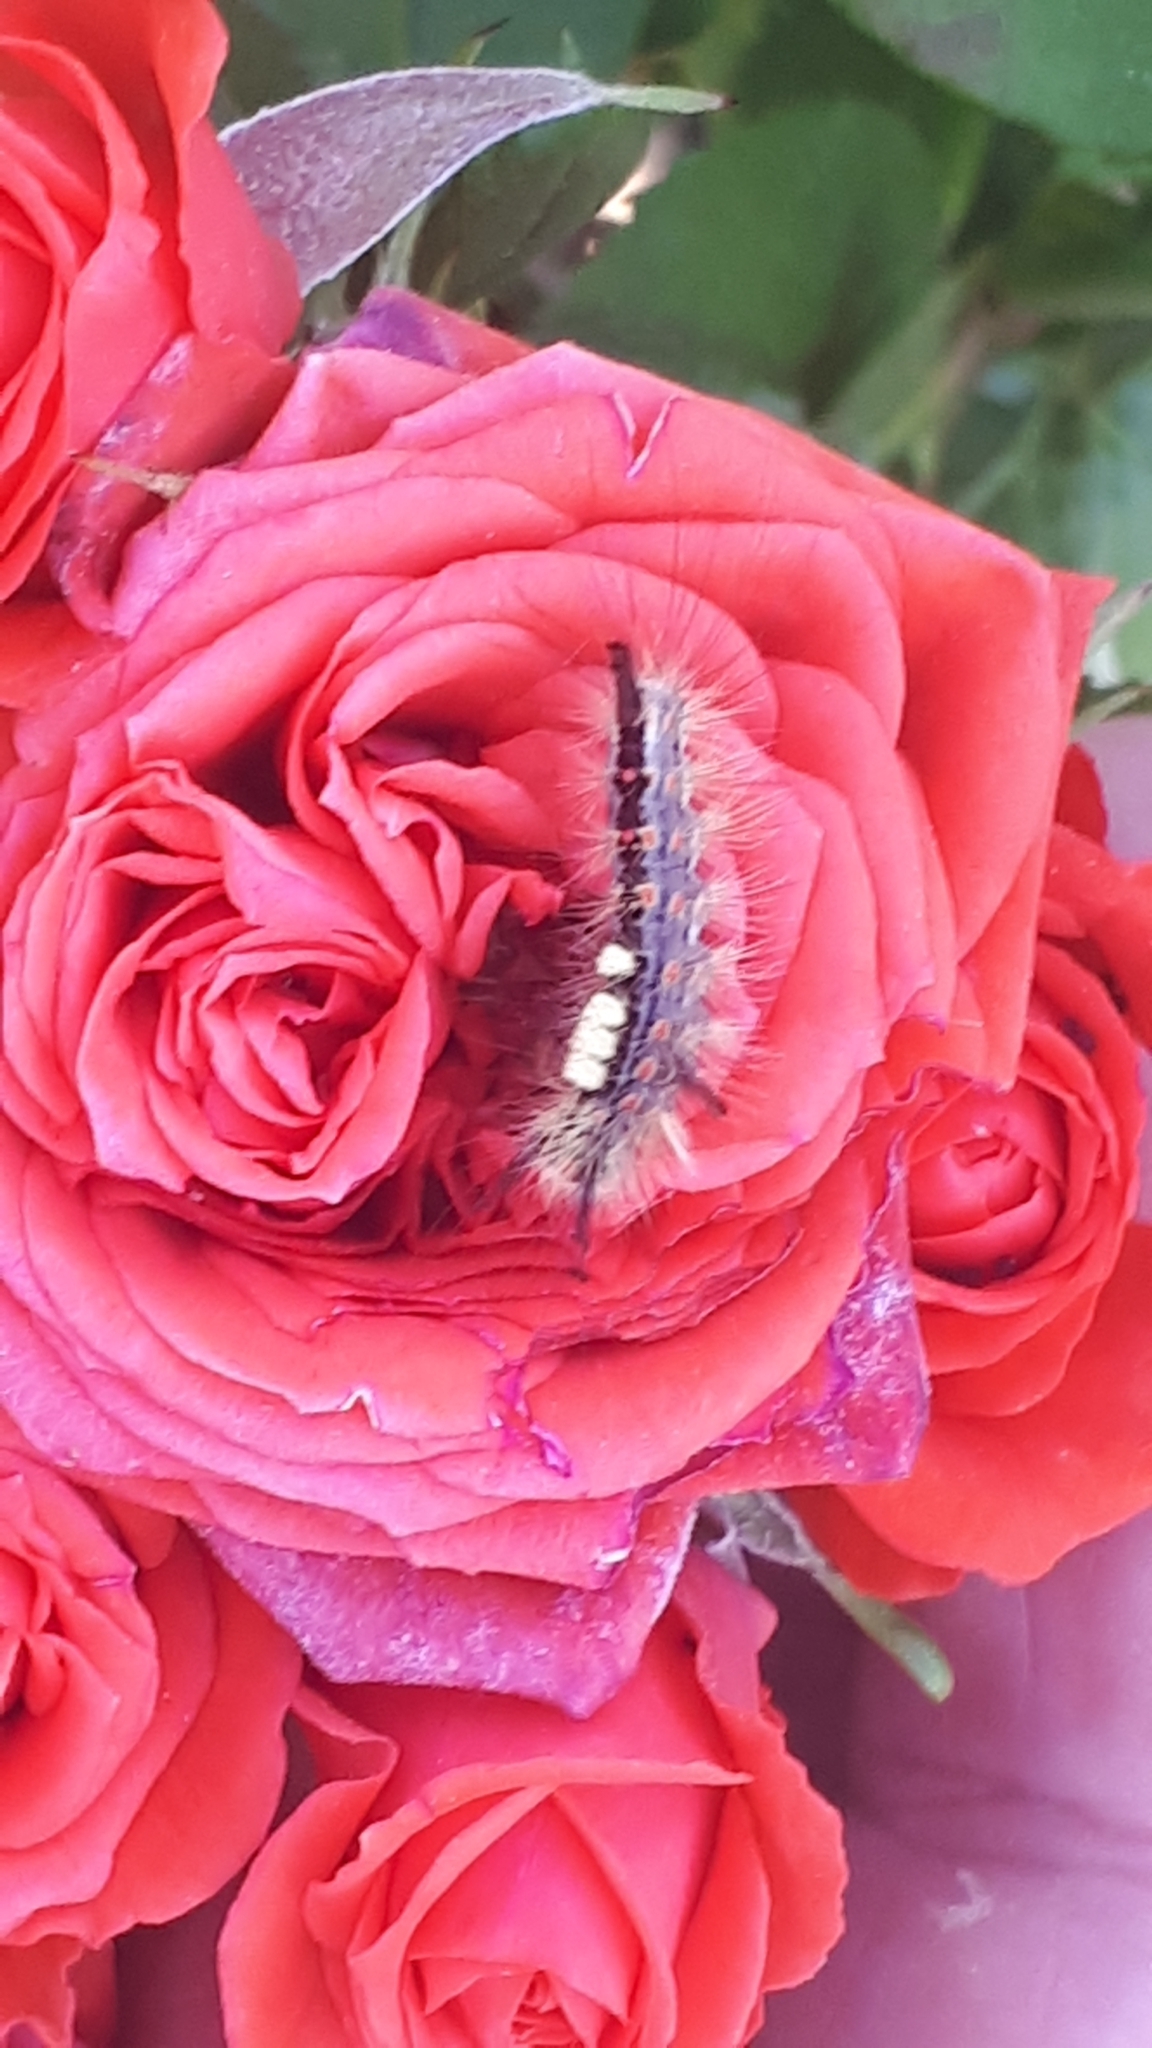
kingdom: Animalia
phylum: Arthropoda
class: Insecta
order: Lepidoptera
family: Erebidae
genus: Orgyia
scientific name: Orgyia antiqua
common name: Vapourer
